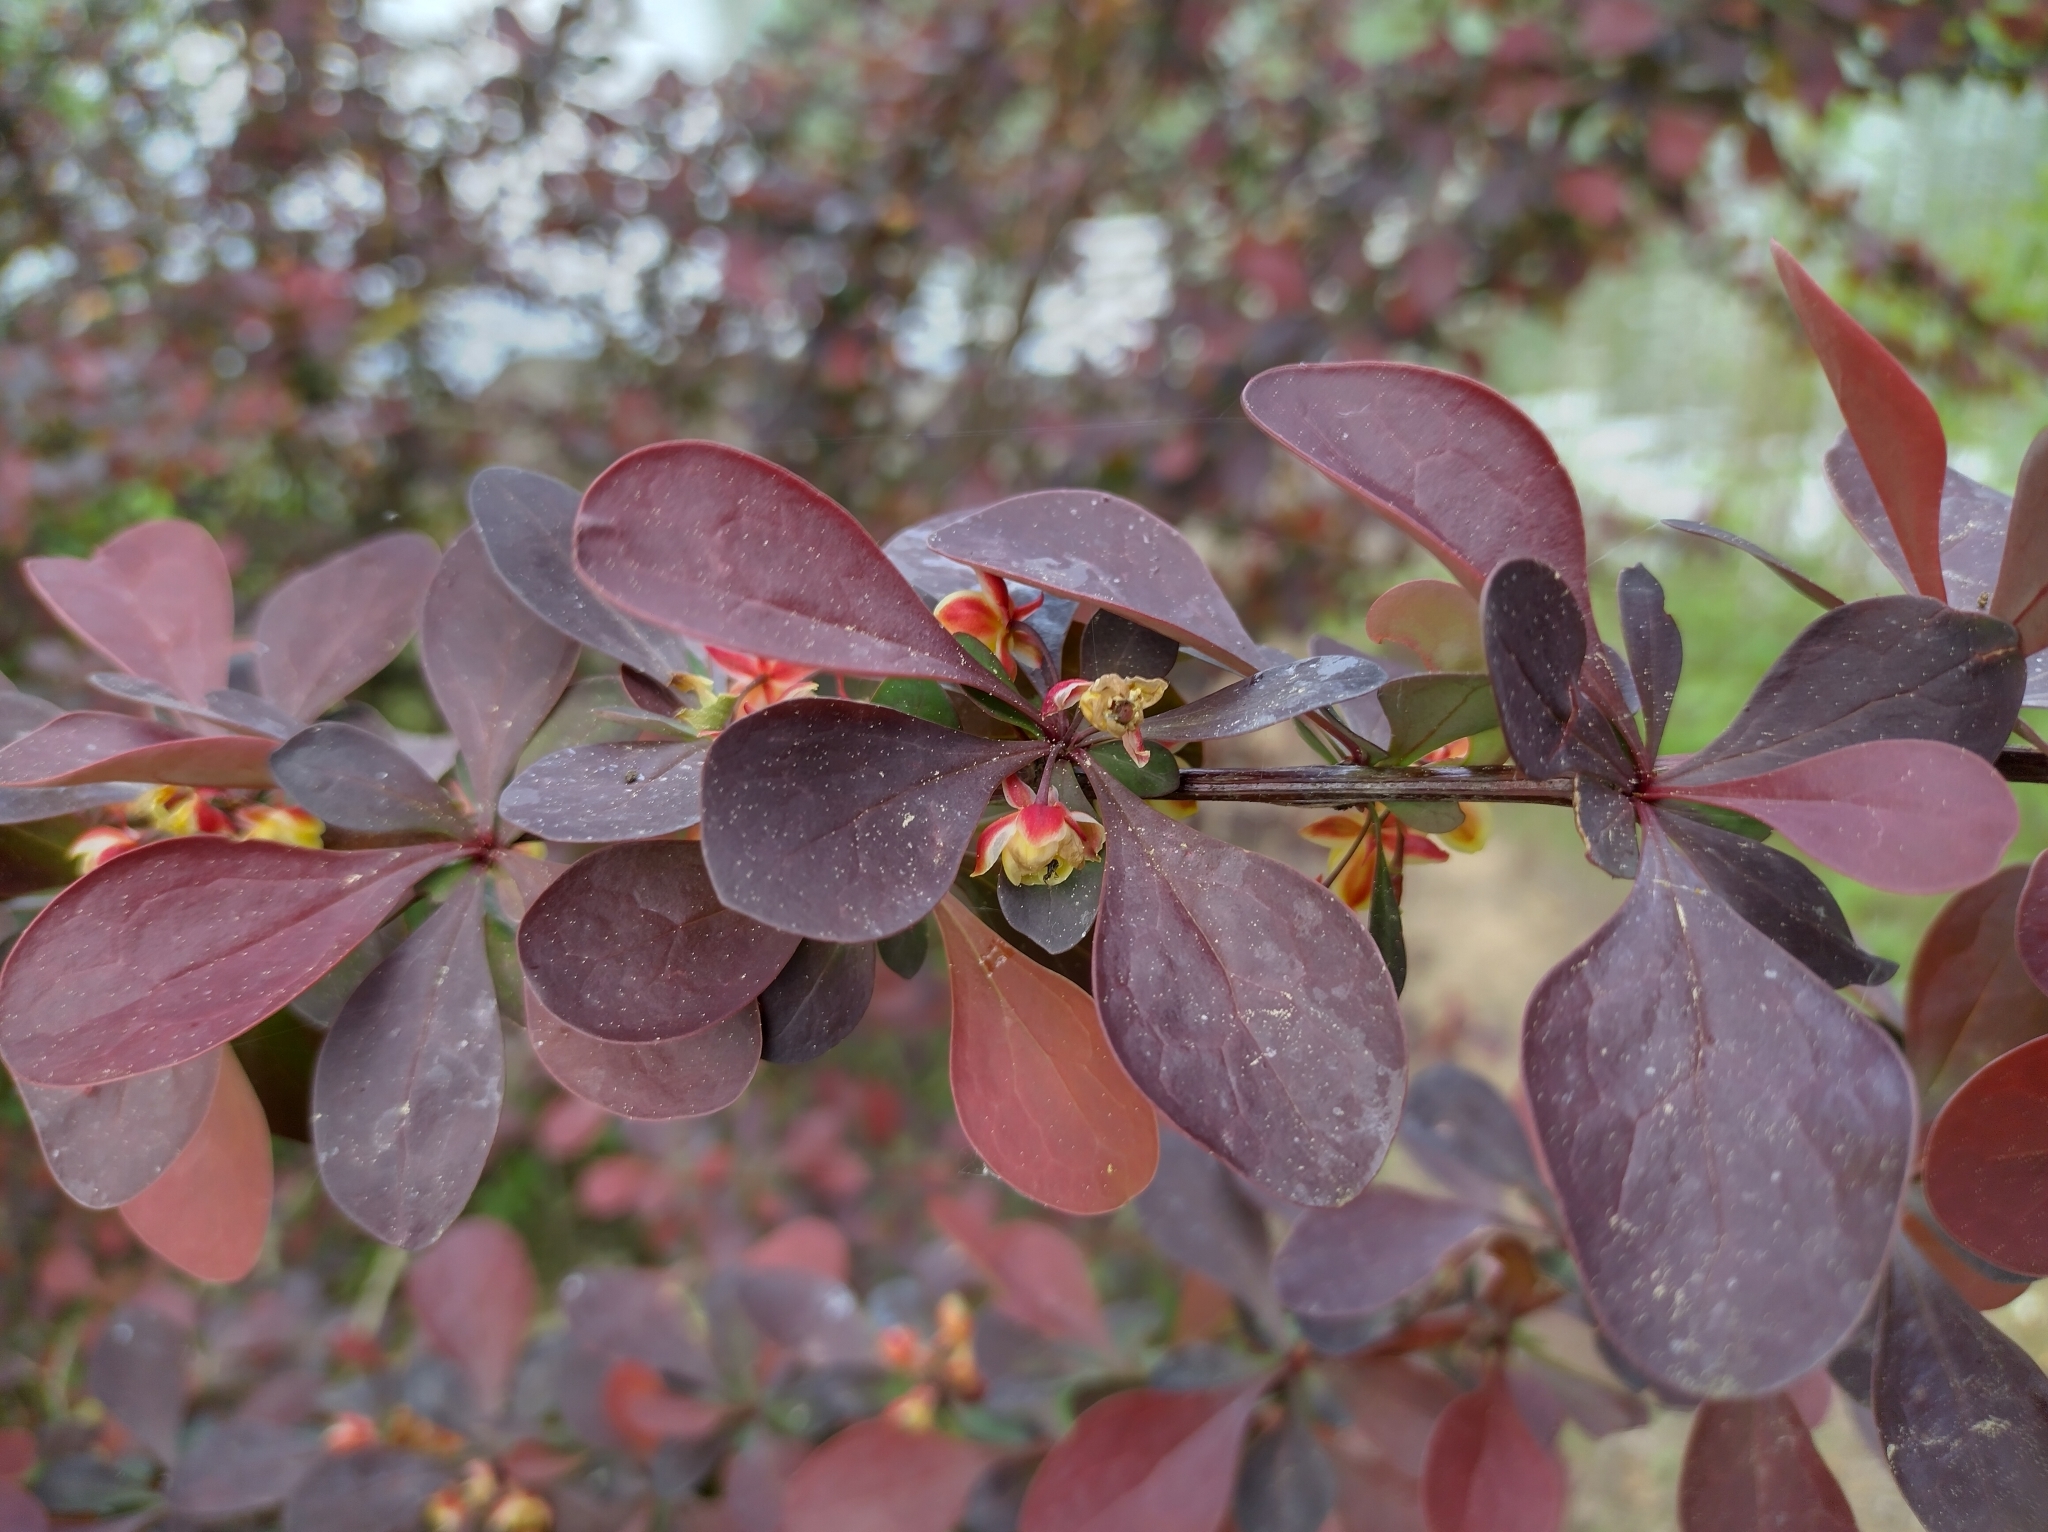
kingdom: Plantae
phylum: Tracheophyta
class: Magnoliopsida
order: Ranunculales
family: Berberidaceae
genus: Berberis
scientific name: Berberis thunbergii
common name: Japanese barberry
